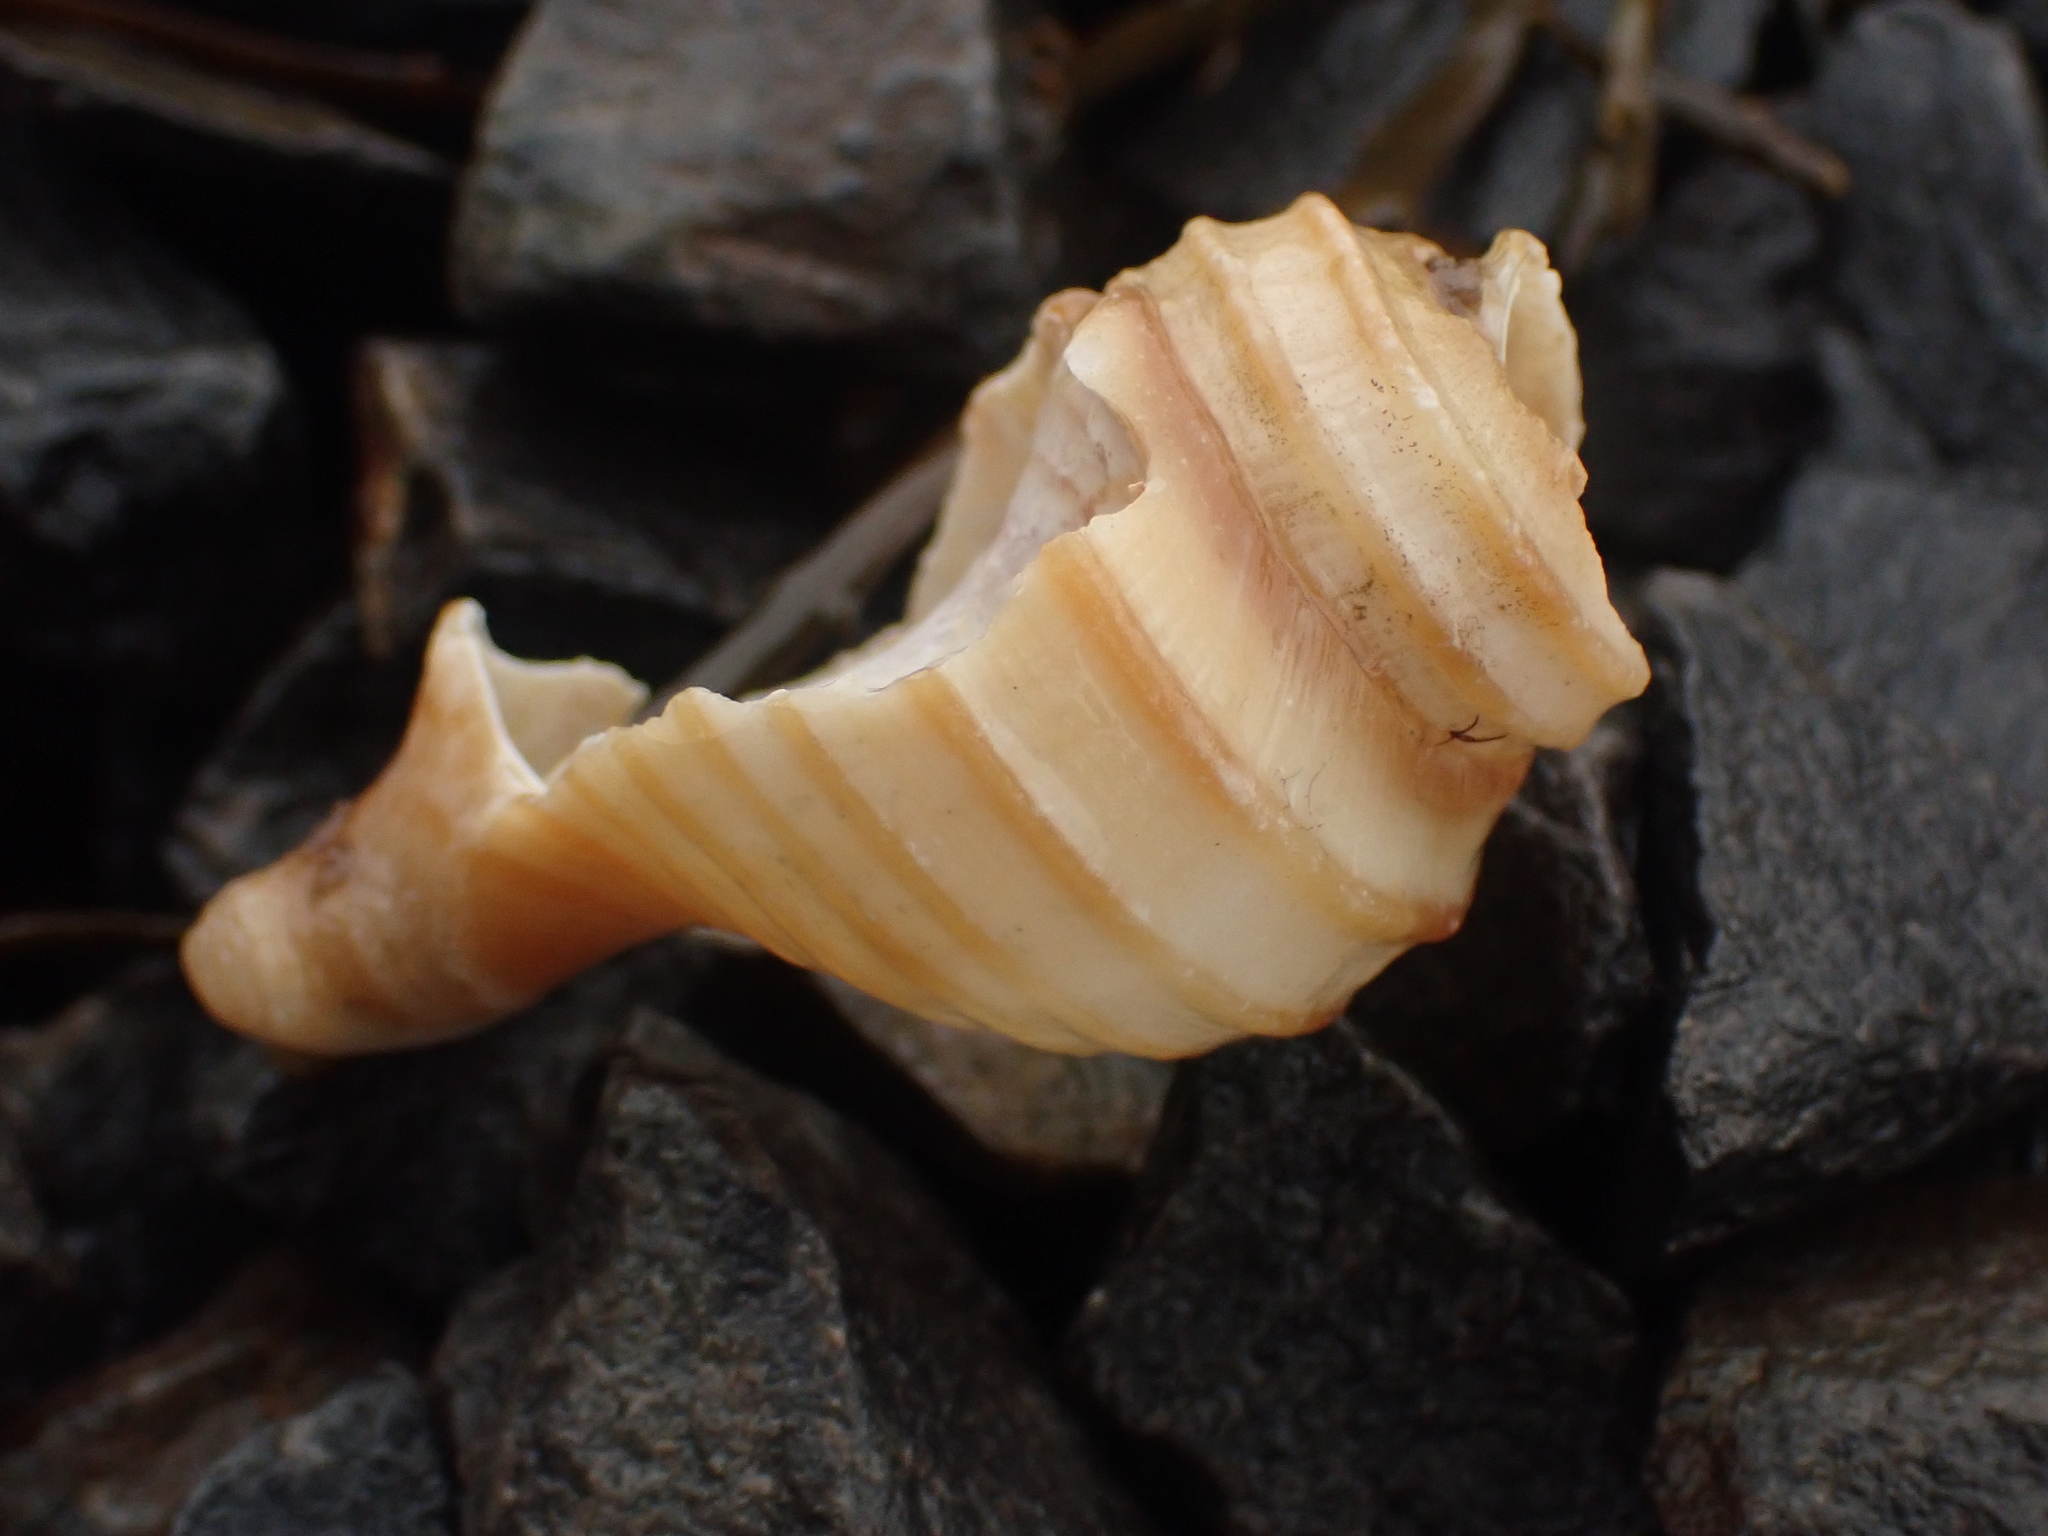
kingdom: Animalia
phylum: Mollusca
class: Gastropoda
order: Neogastropoda
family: Buccinidae
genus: Neptunea
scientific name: Neptunea decemcostata
